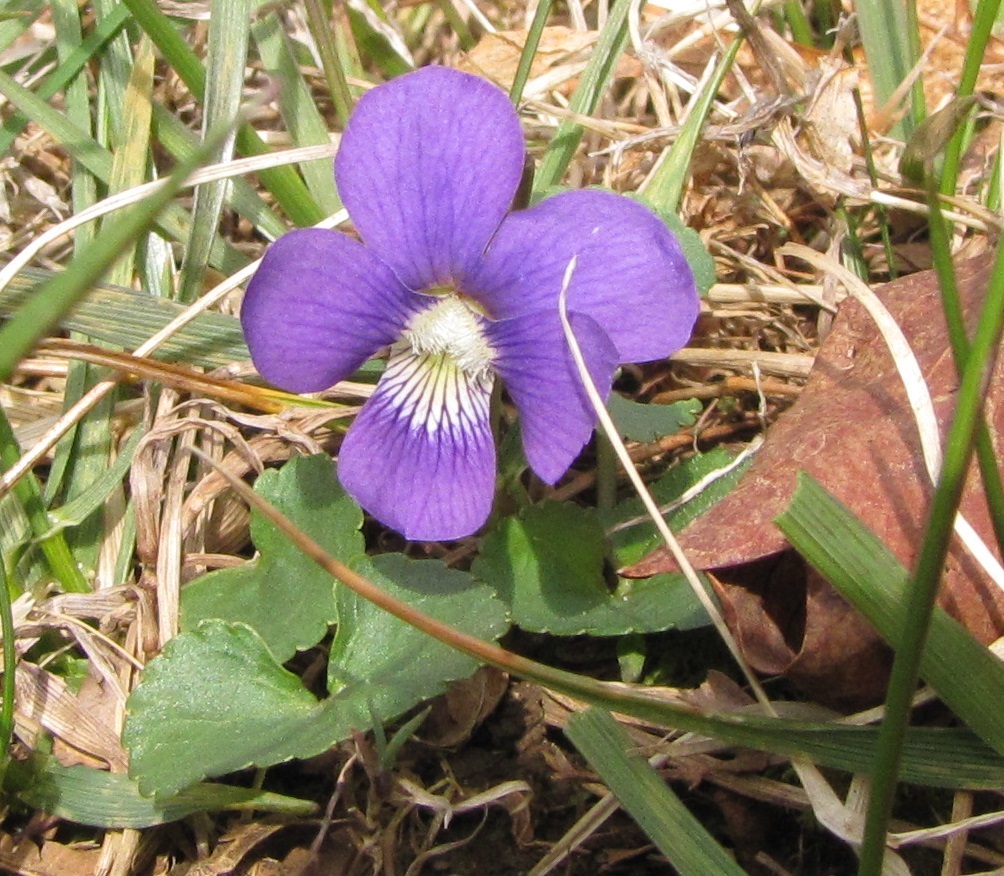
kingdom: Plantae
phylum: Tracheophyta
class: Magnoliopsida
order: Malpighiales
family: Violaceae
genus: Viola
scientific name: Viola sororia
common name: Dooryard violet
